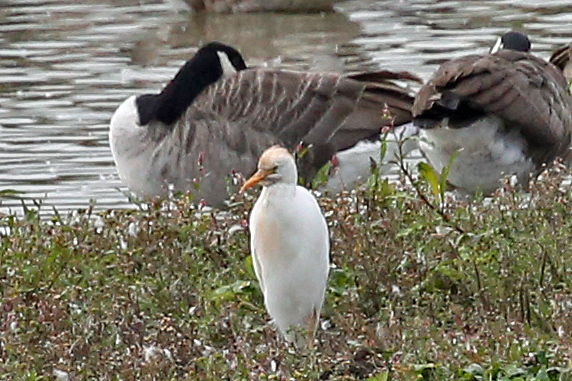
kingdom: Animalia
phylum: Chordata
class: Aves
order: Pelecaniformes
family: Ardeidae
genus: Bubulcus
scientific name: Bubulcus ibis
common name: Cattle egret
